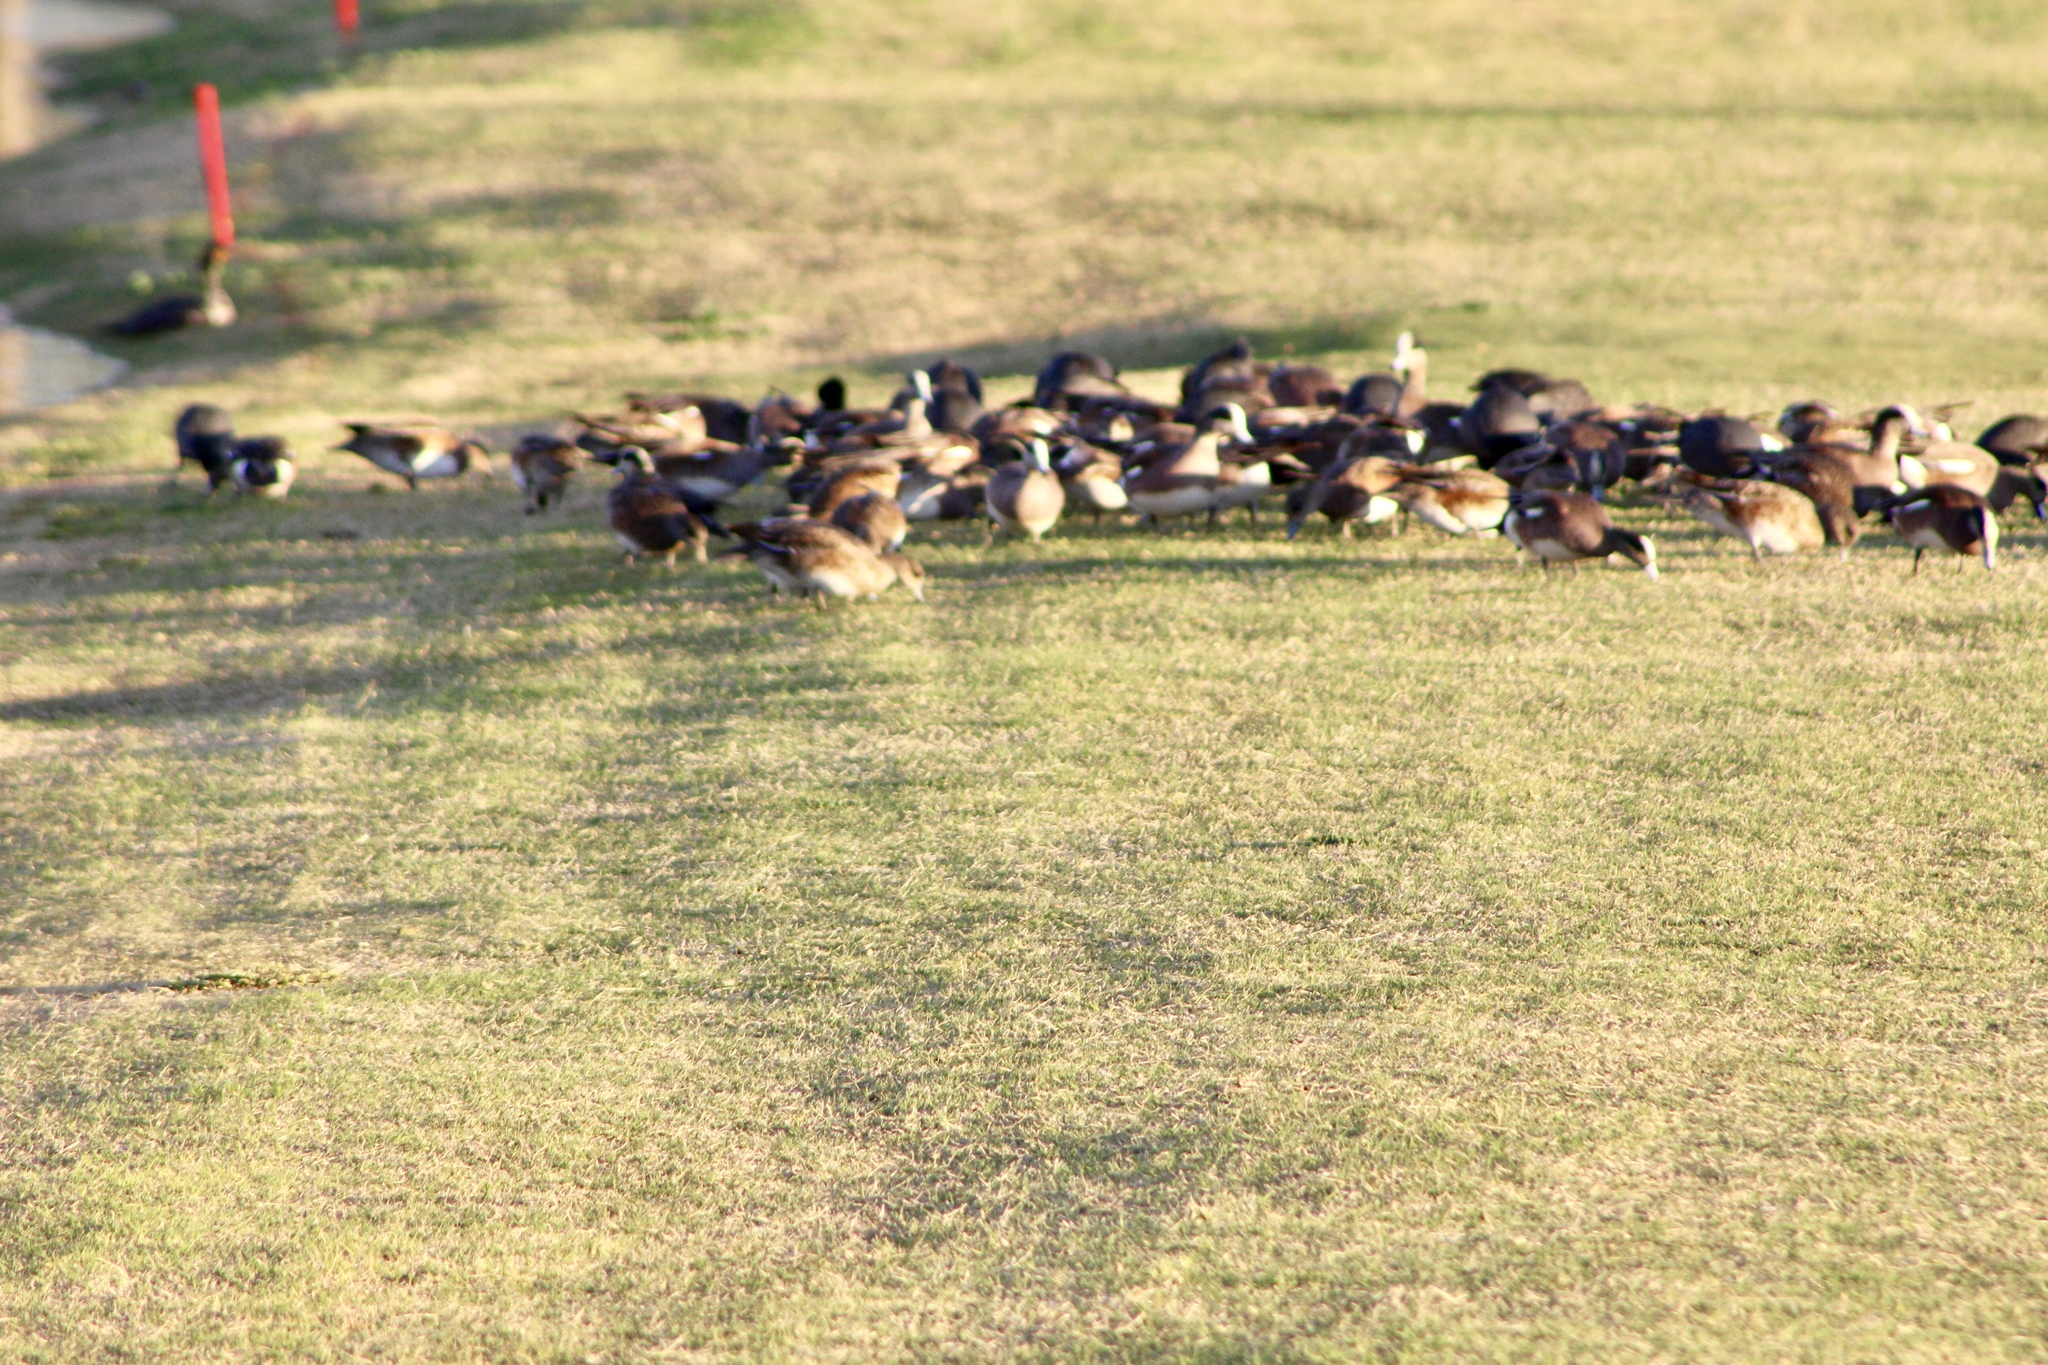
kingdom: Animalia
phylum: Chordata
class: Aves
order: Anseriformes
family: Anatidae
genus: Mareca
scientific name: Mareca americana
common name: American wigeon
